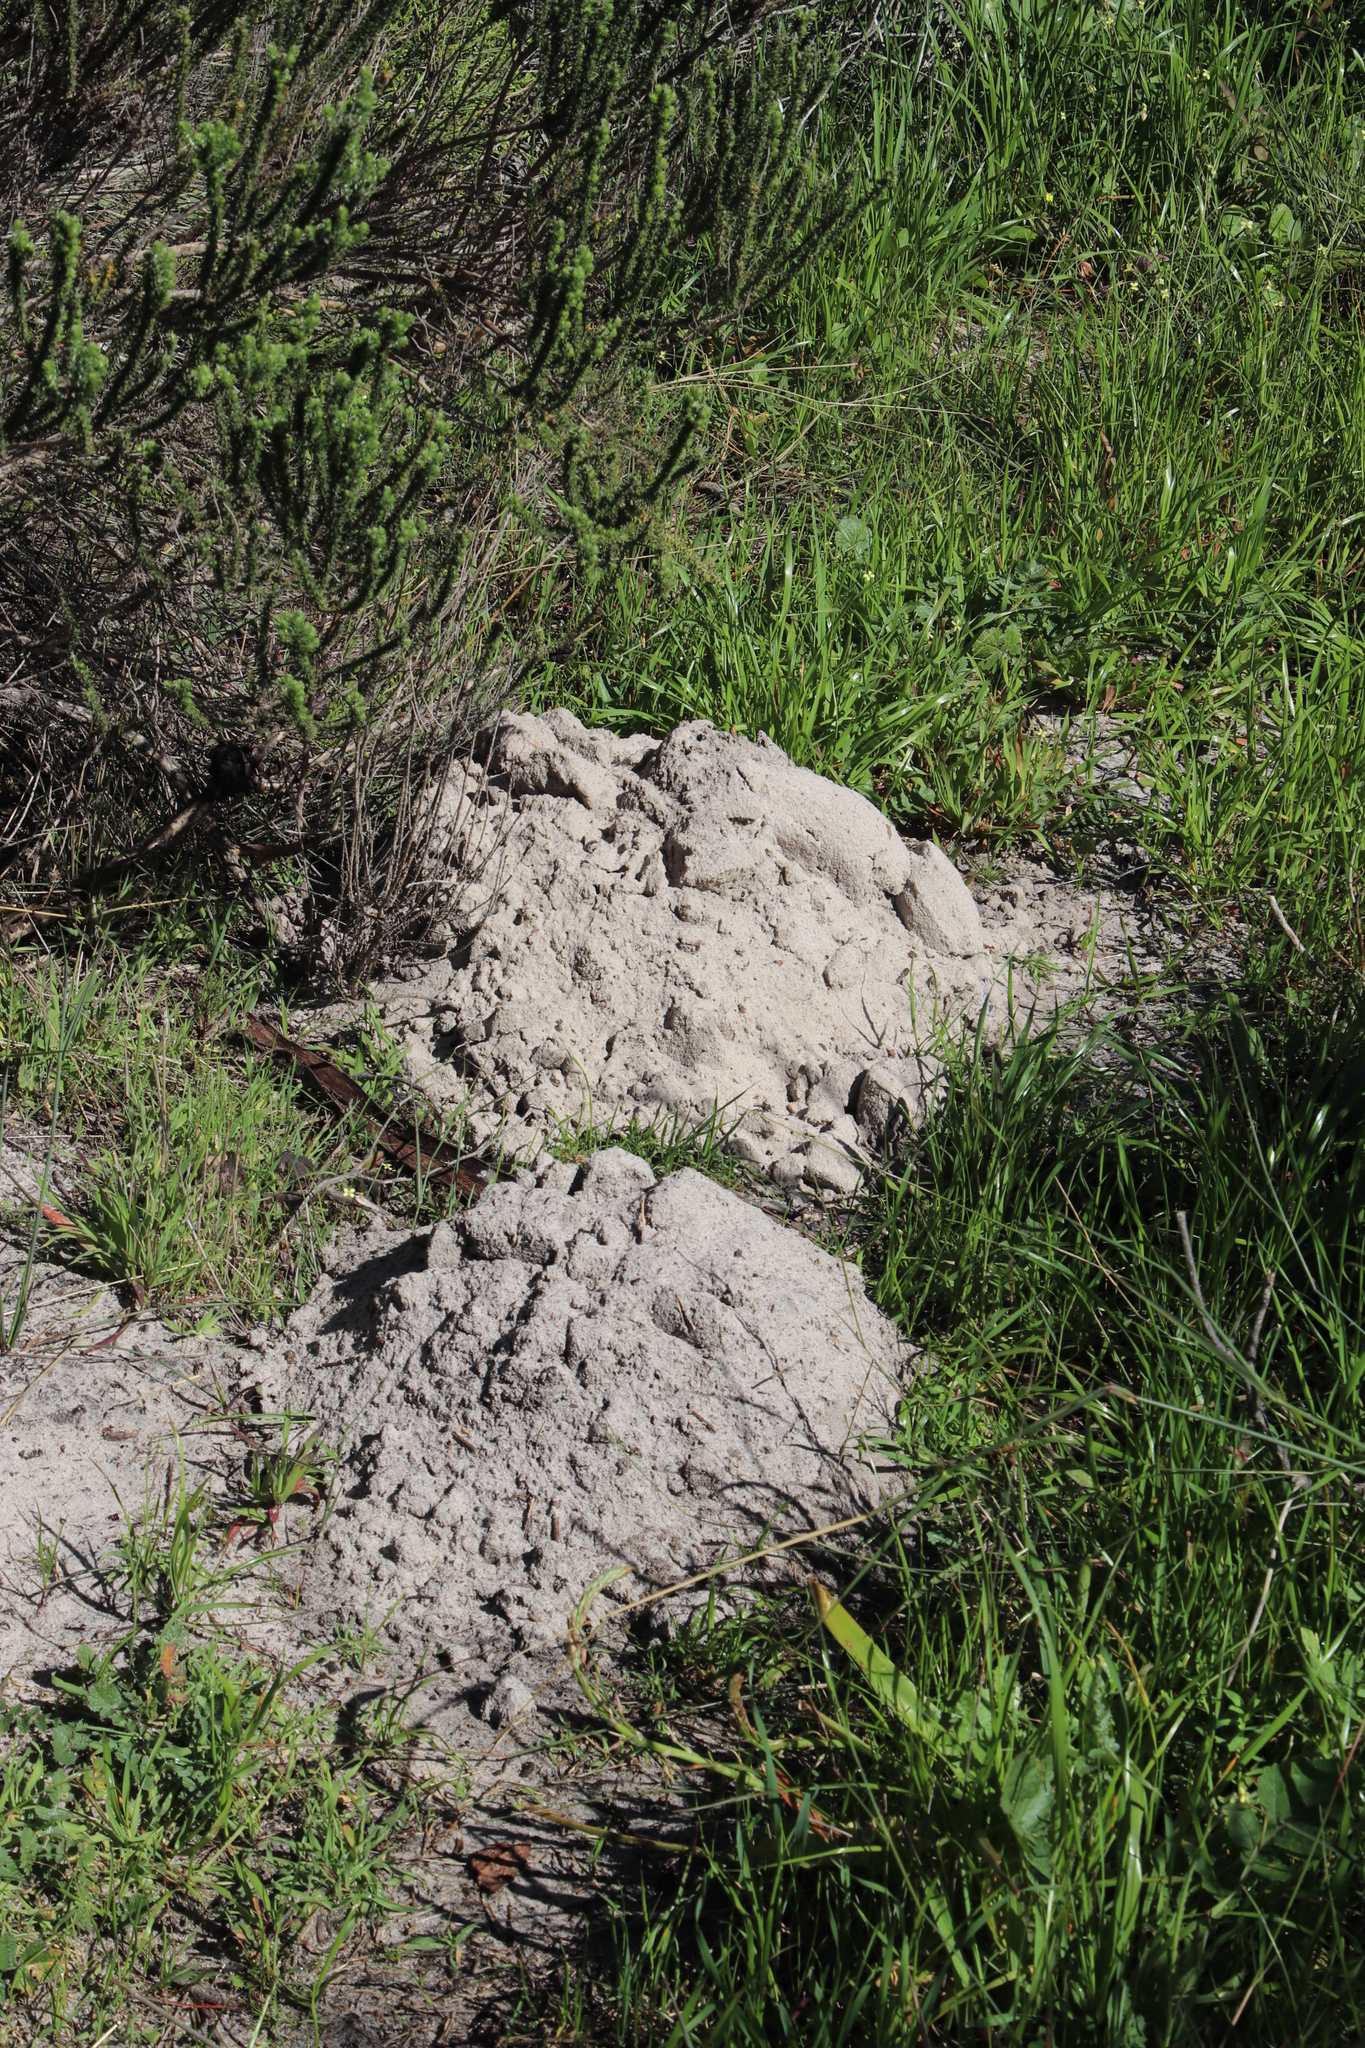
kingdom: Animalia
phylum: Chordata
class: Mammalia
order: Rodentia
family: Bathyergidae
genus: Bathyergus
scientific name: Bathyergus suillus
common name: Cape dune mole rat
